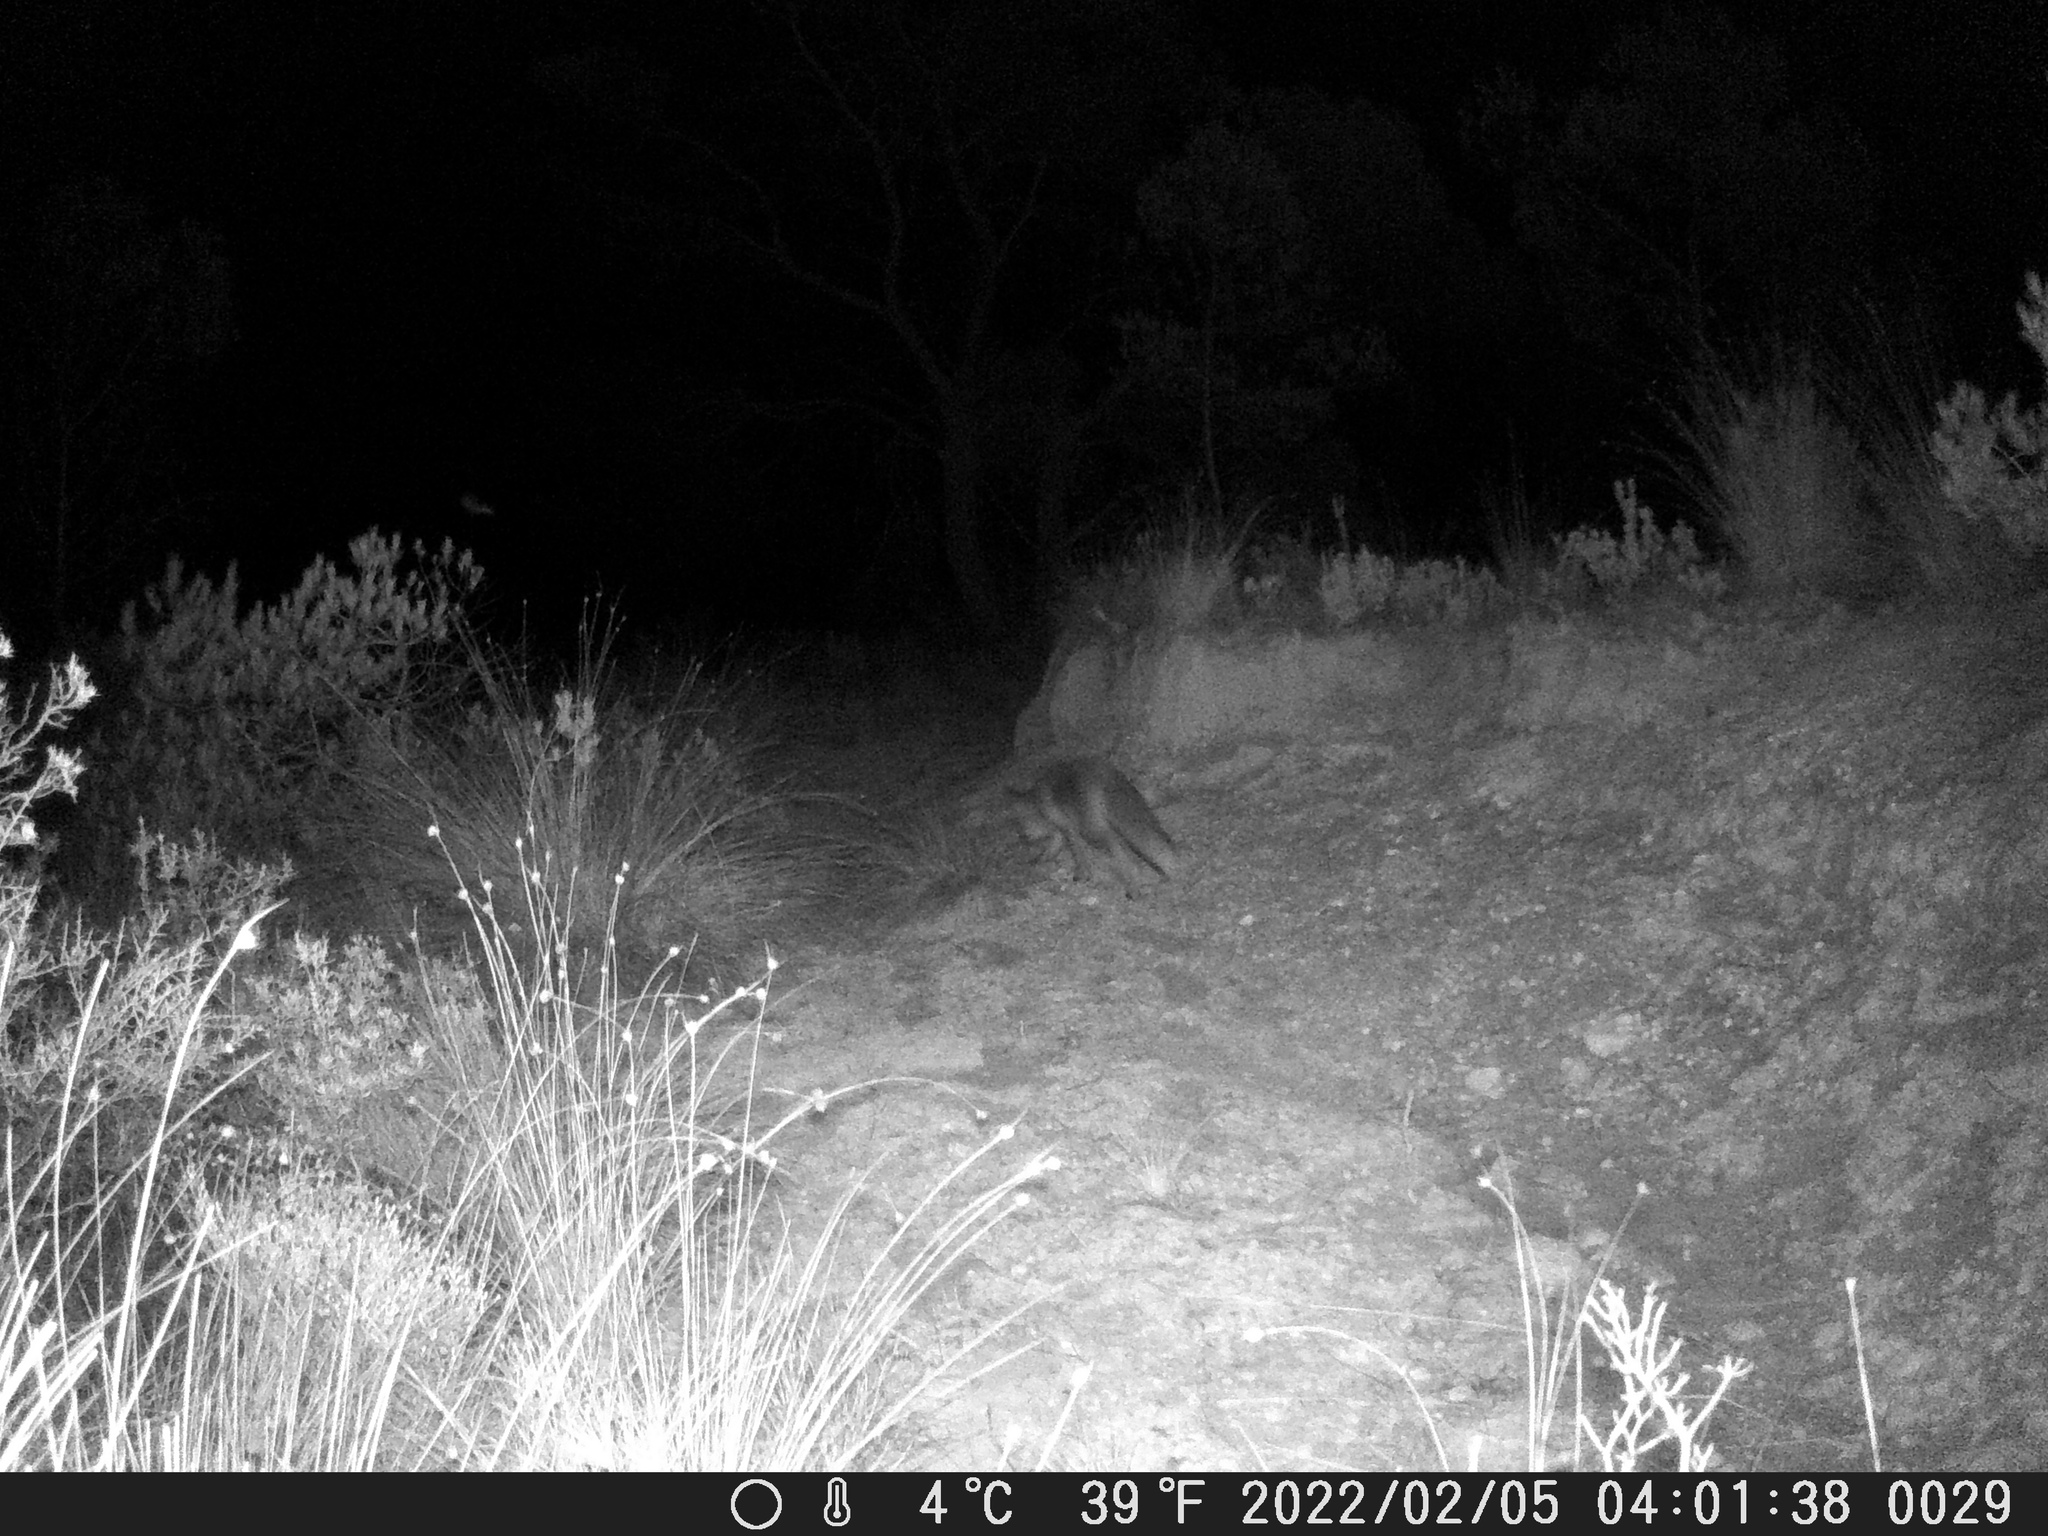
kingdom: Animalia
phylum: Chordata
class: Mammalia
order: Carnivora
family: Canidae
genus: Vulpes
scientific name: Vulpes vulpes
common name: Red fox
